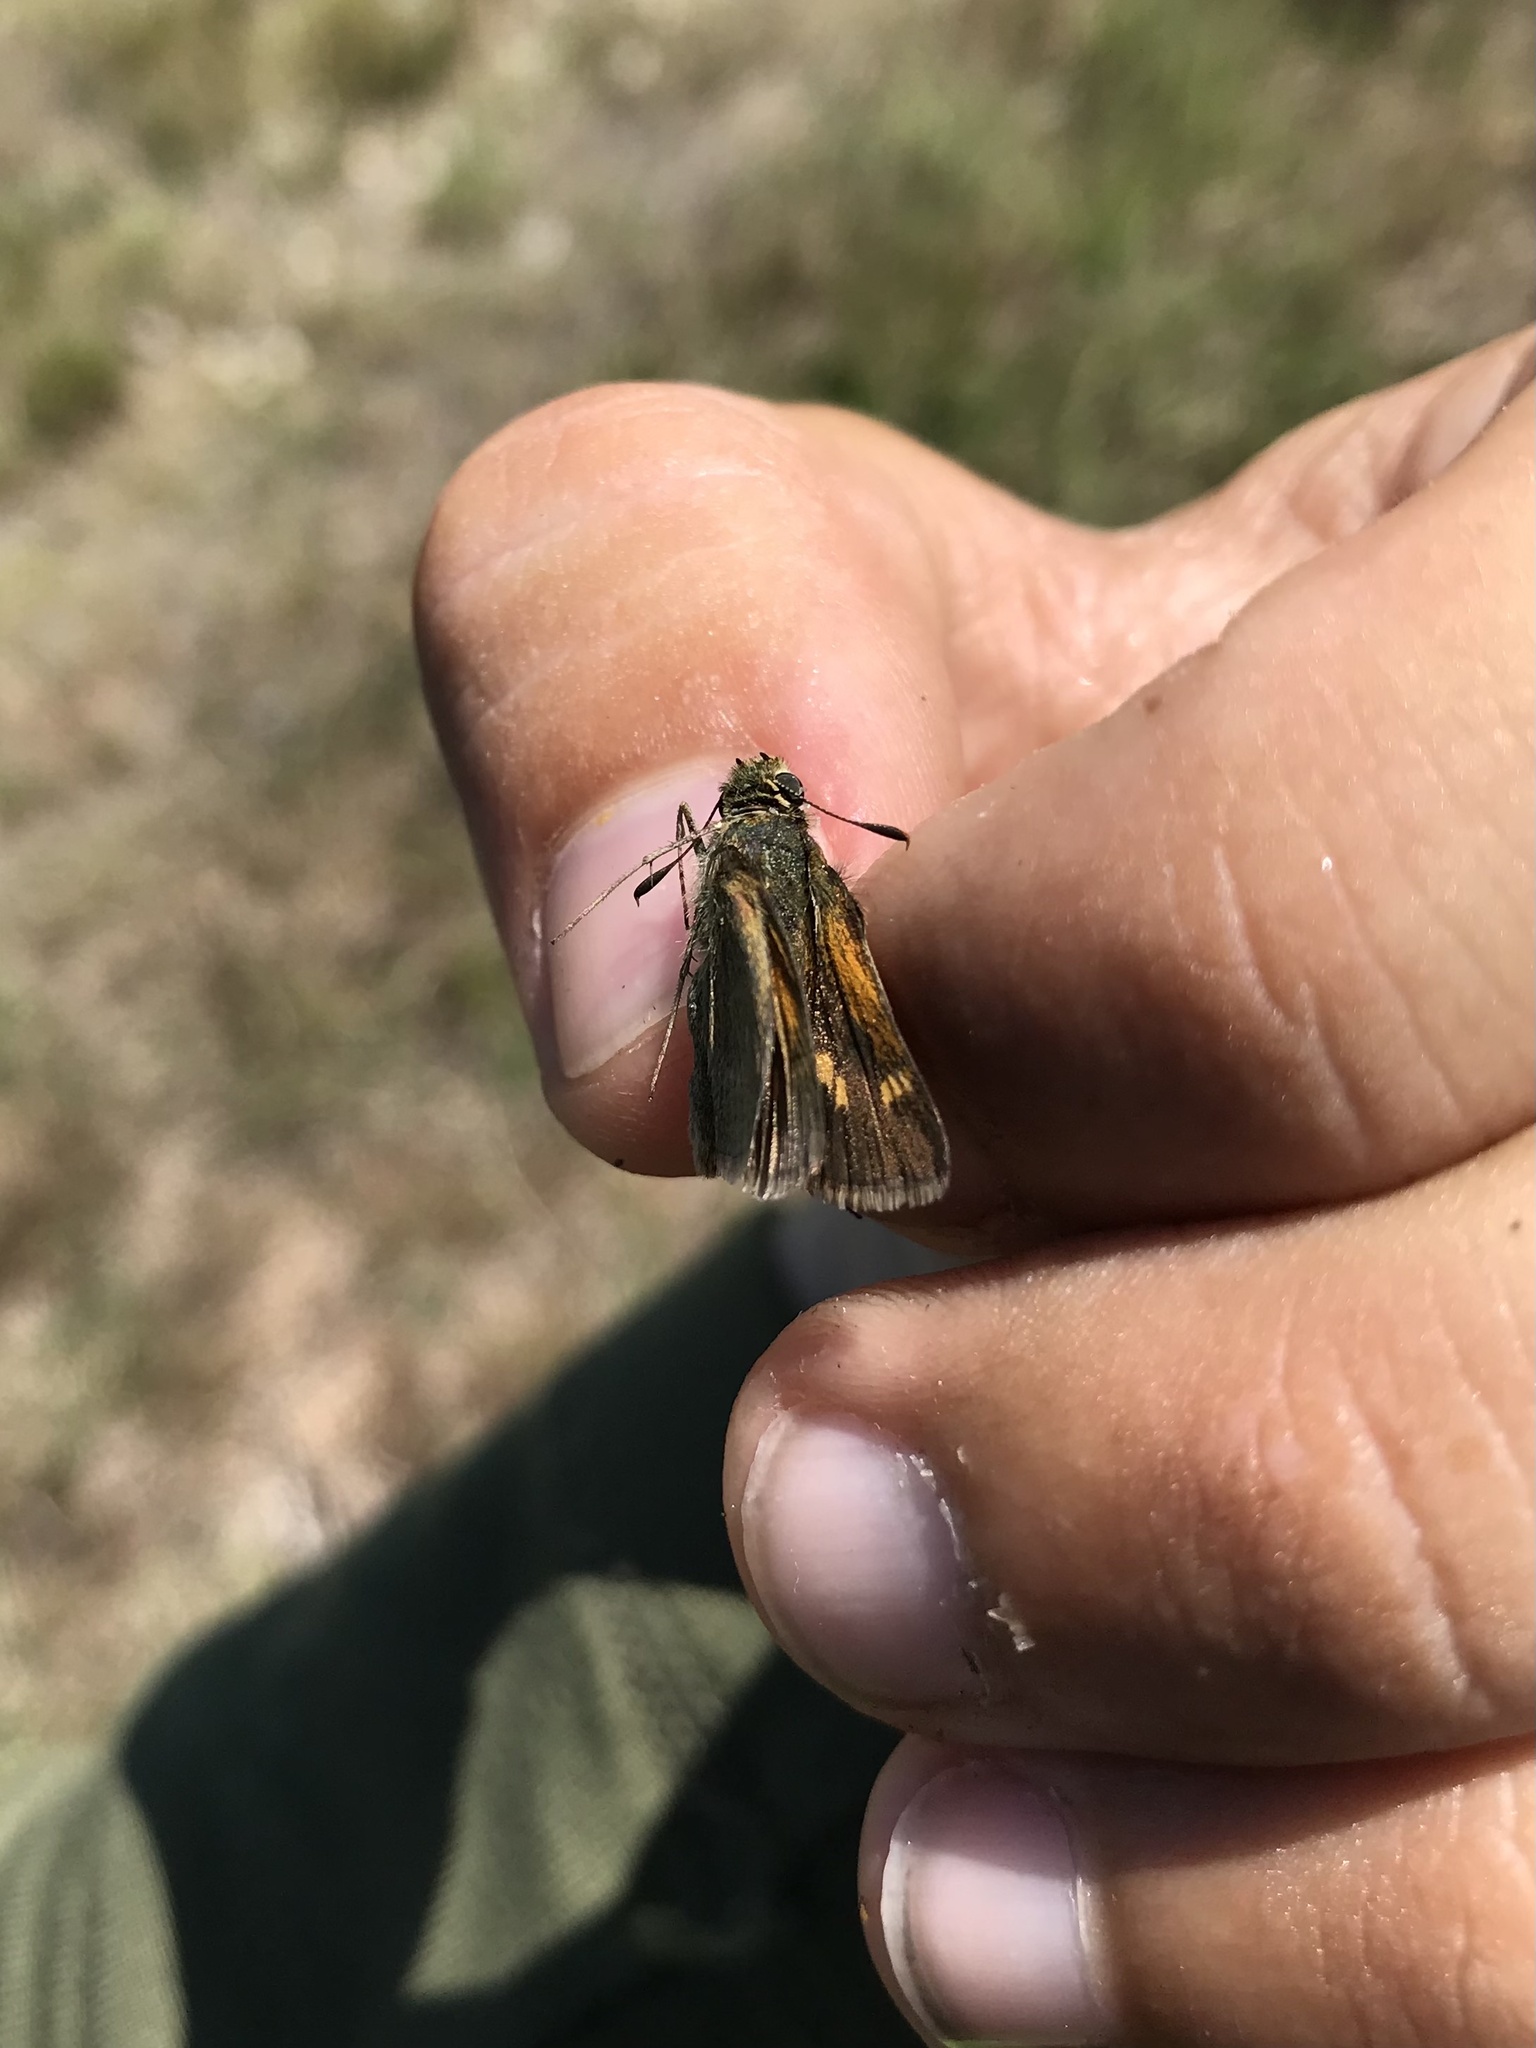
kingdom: Animalia
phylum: Arthropoda
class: Insecta
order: Lepidoptera
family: Hesperiidae
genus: Polites
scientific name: Polites themistocles
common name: Tawny-edged skipper
